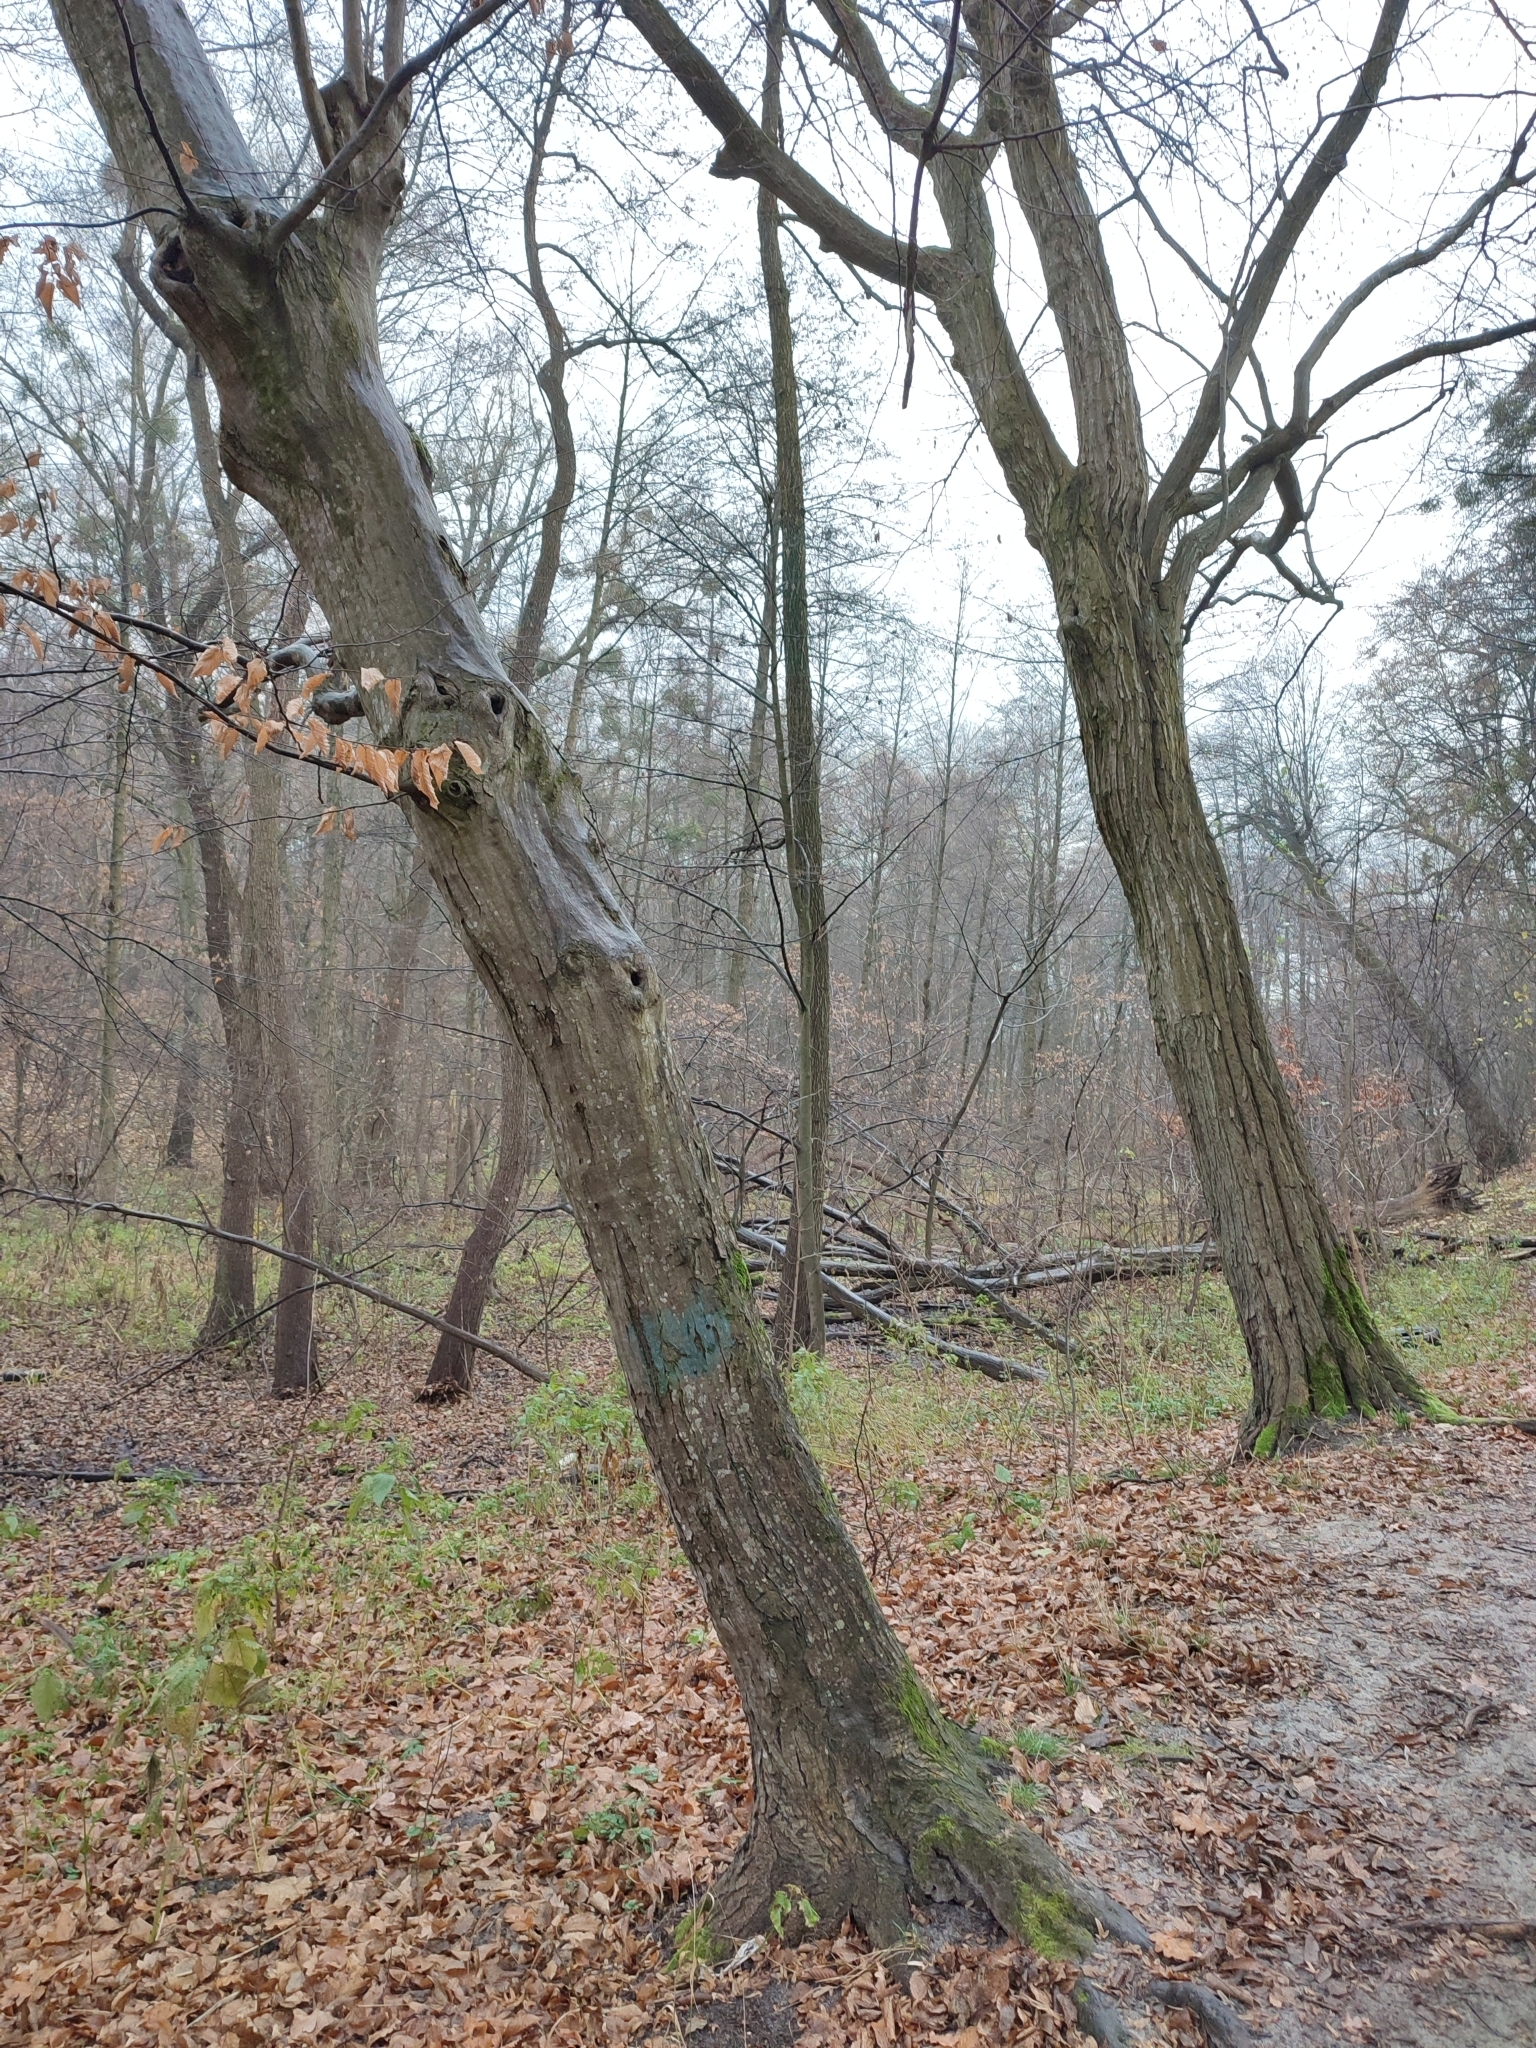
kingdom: Plantae
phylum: Tracheophyta
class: Magnoliopsida
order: Fagales
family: Betulaceae
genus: Carpinus
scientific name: Carpinus betulus
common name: Hornbeam
